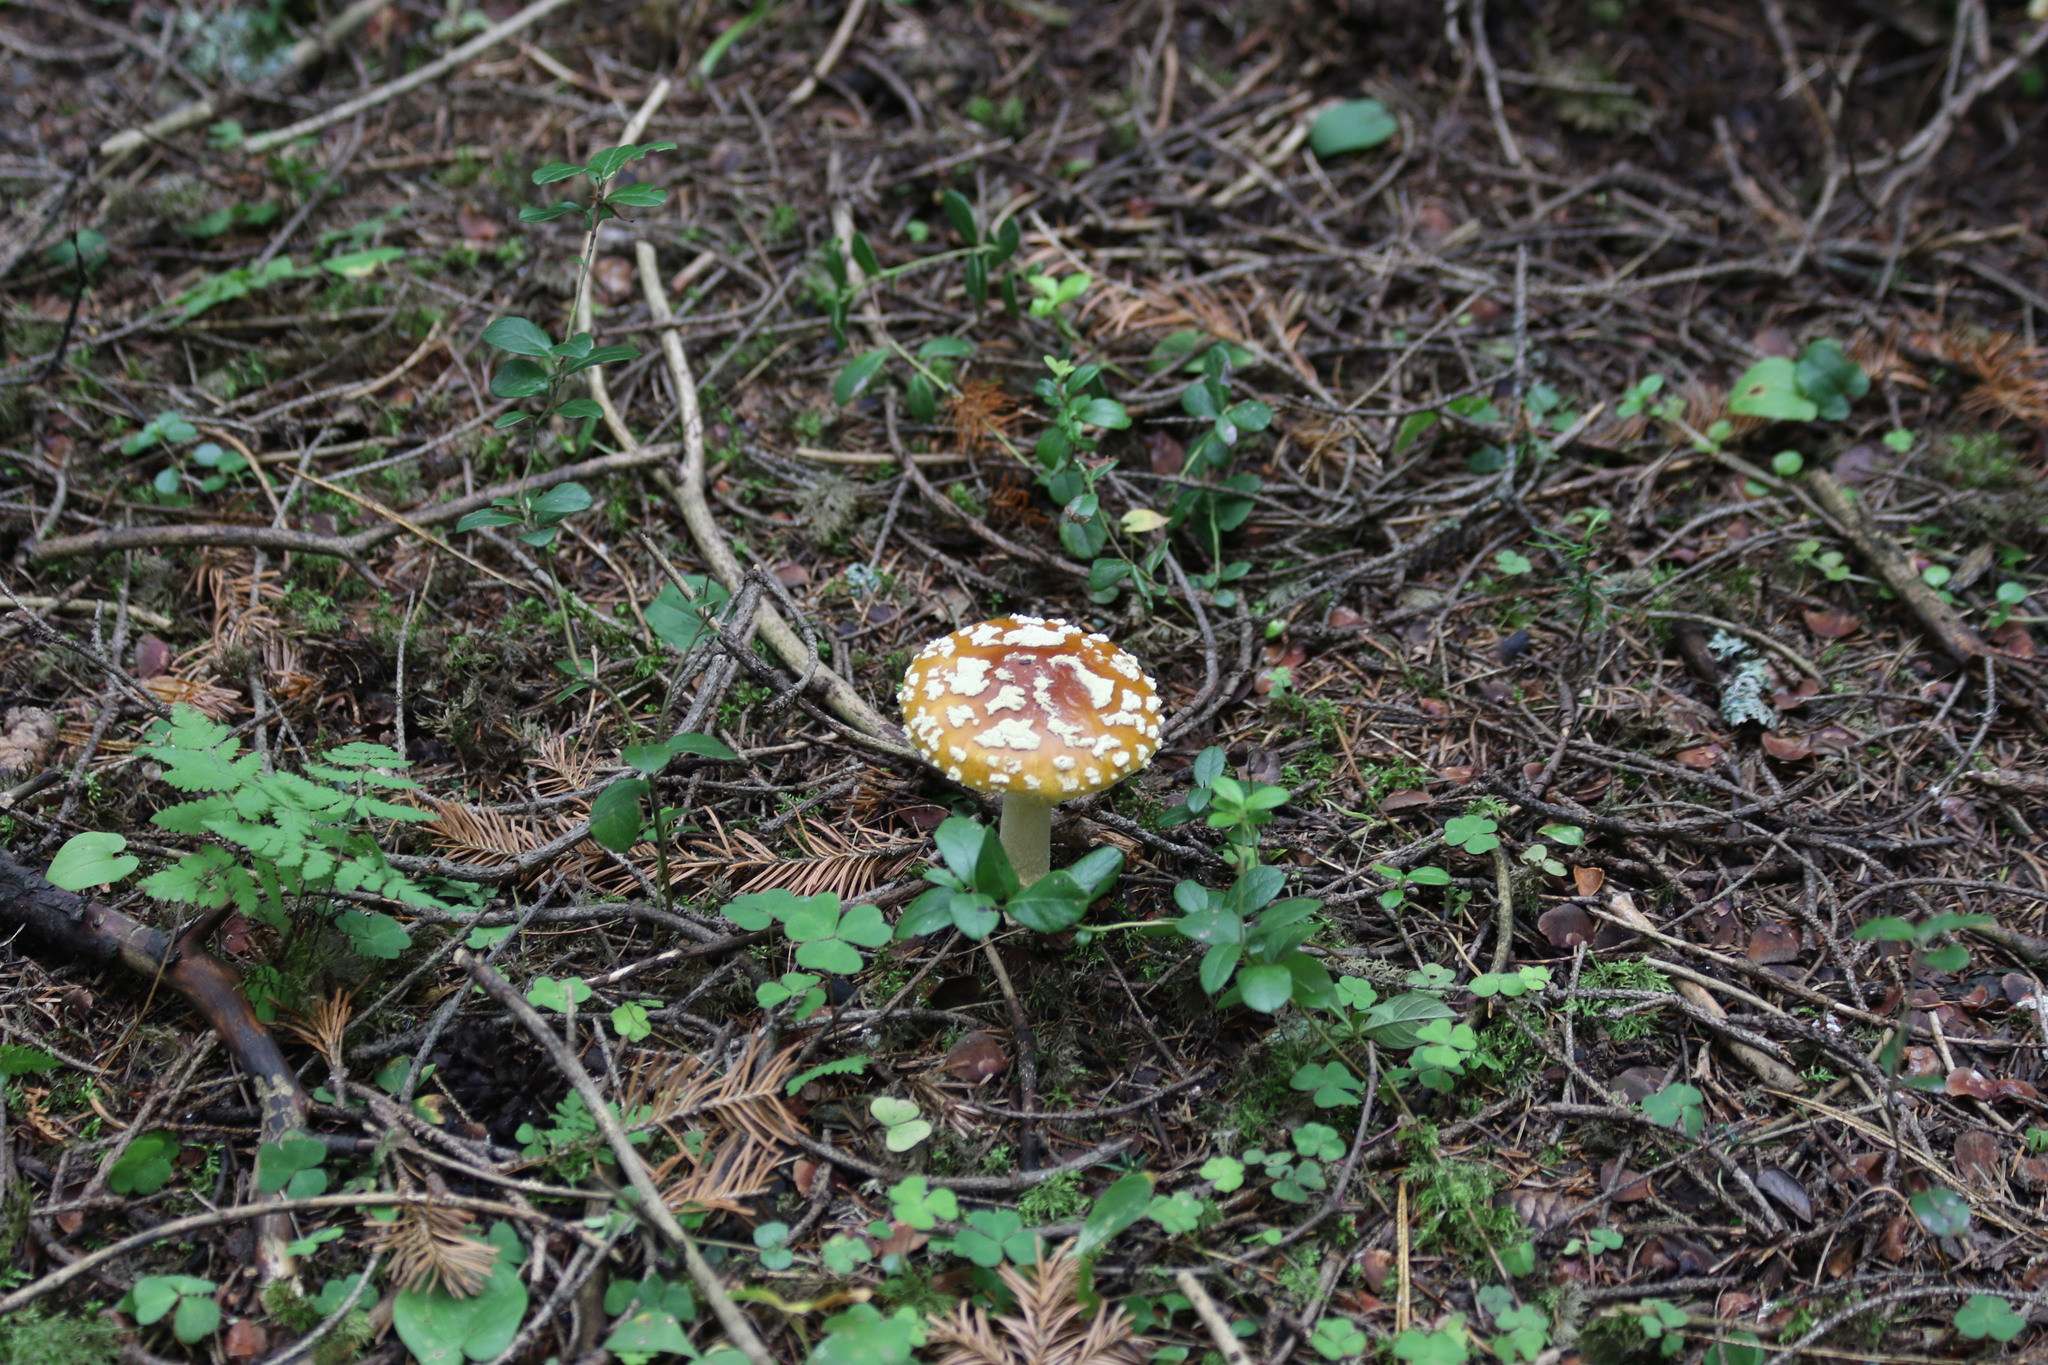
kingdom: Fungi
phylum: Basidiomycota
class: Agaricomycetes
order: Agaricales
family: Amanitaceae
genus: Amanita
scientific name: Amanita regalis
